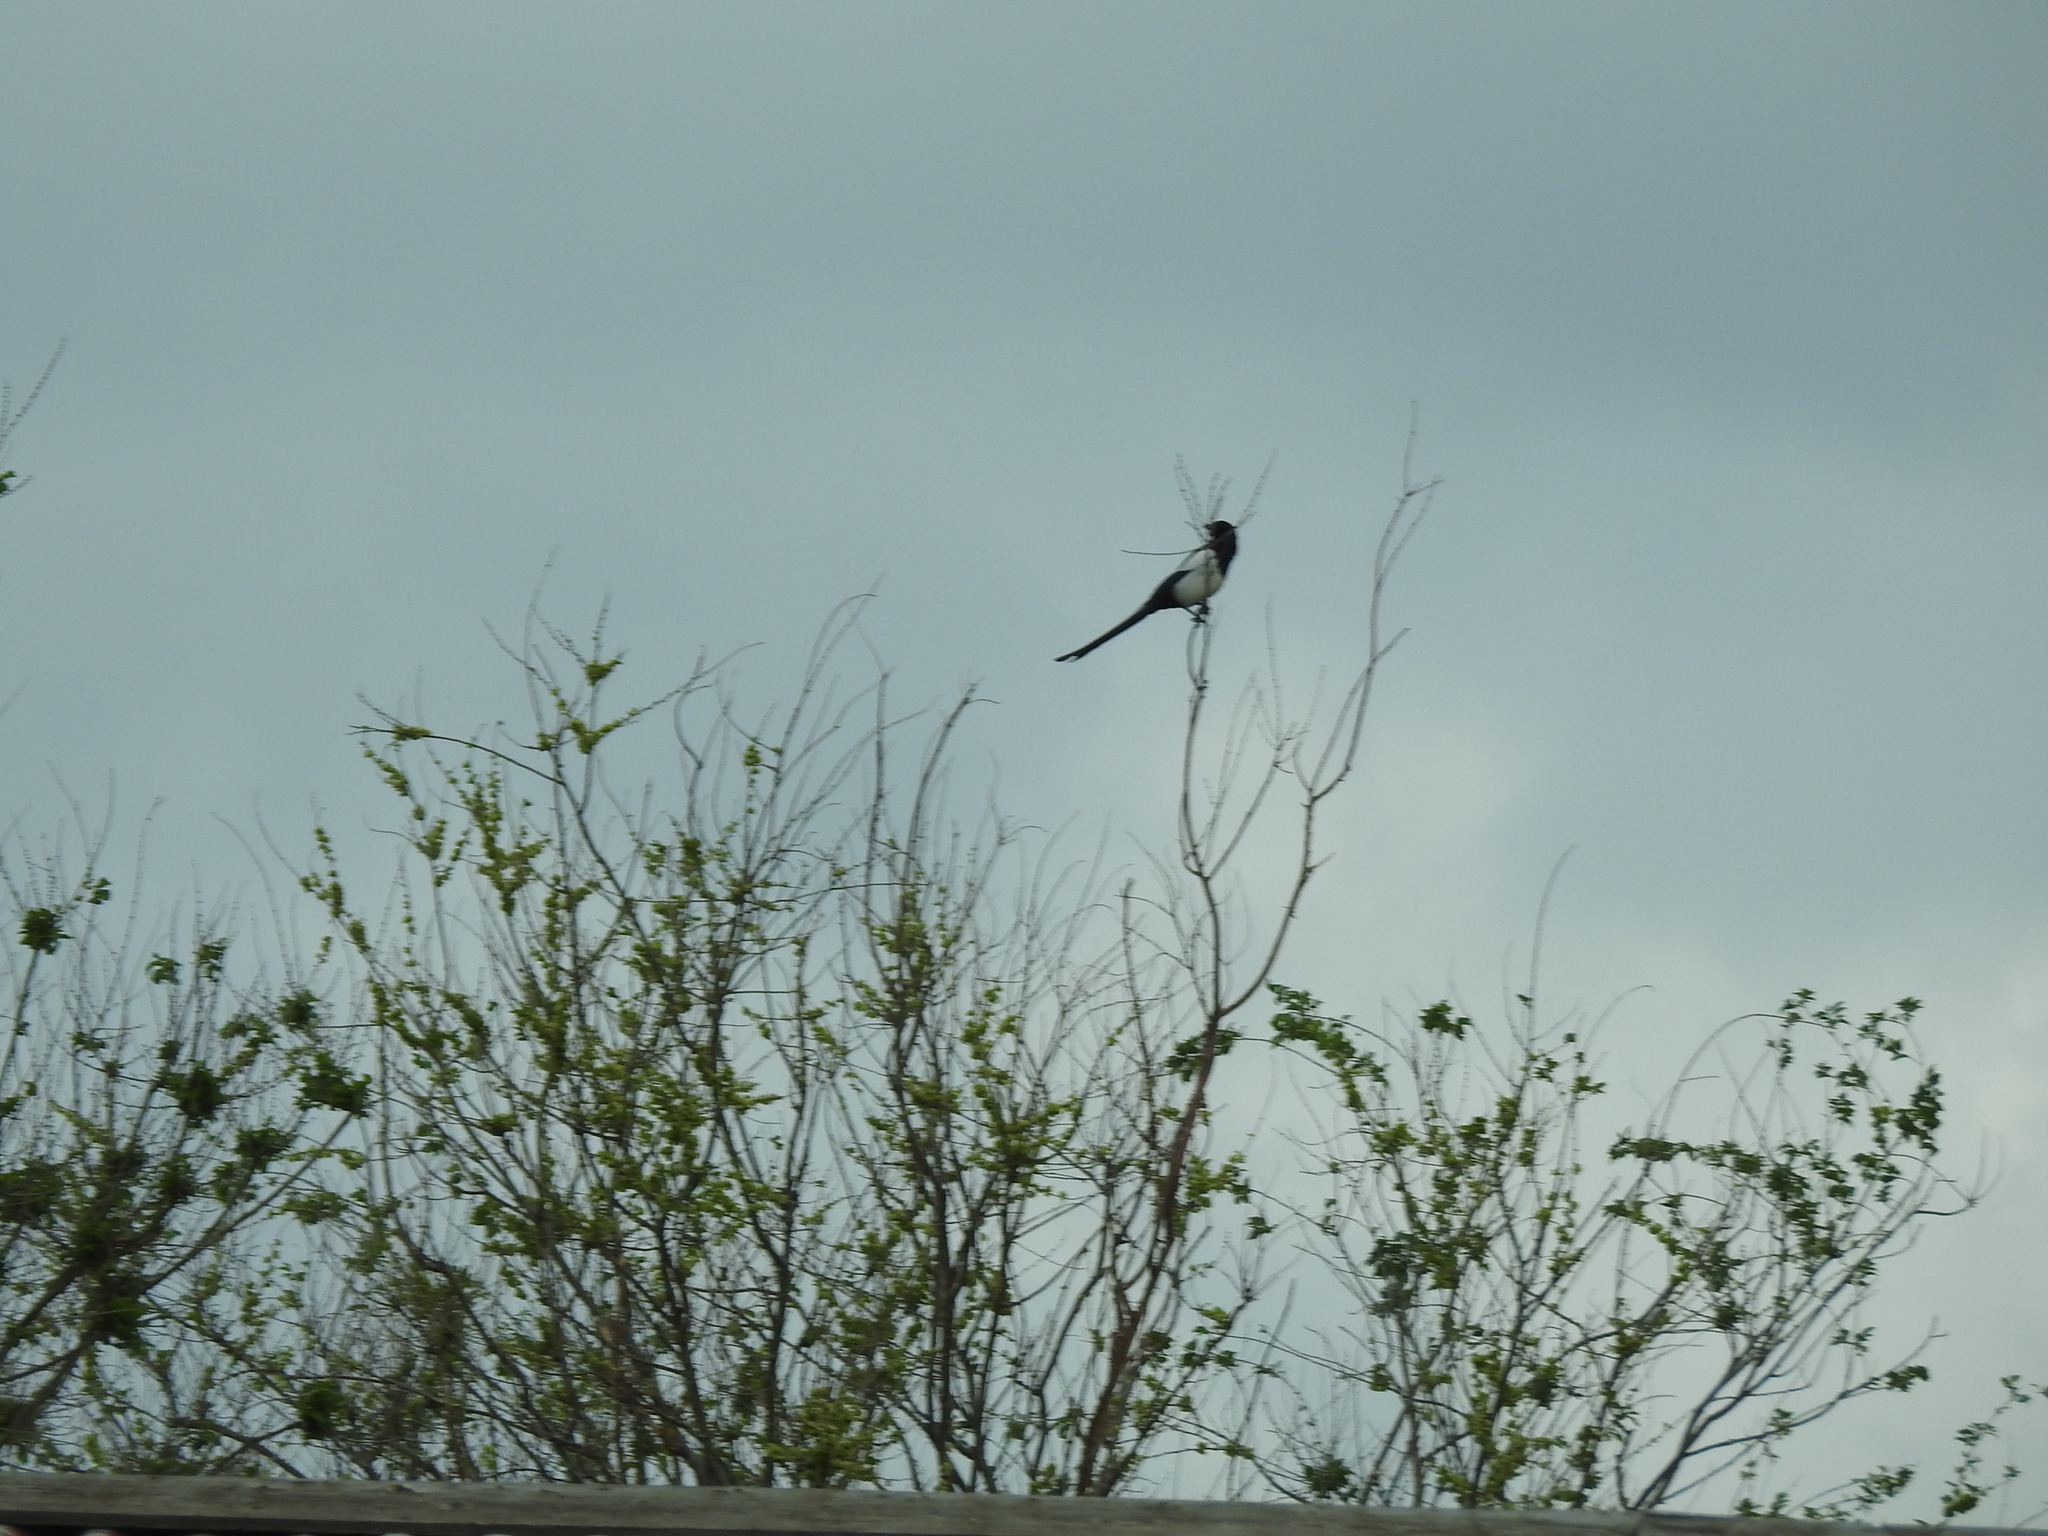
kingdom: Animalia
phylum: Chordata
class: Aves
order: Passeriformes
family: Corvidae
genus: Pica
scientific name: Pica pica
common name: Eurasian magpie
